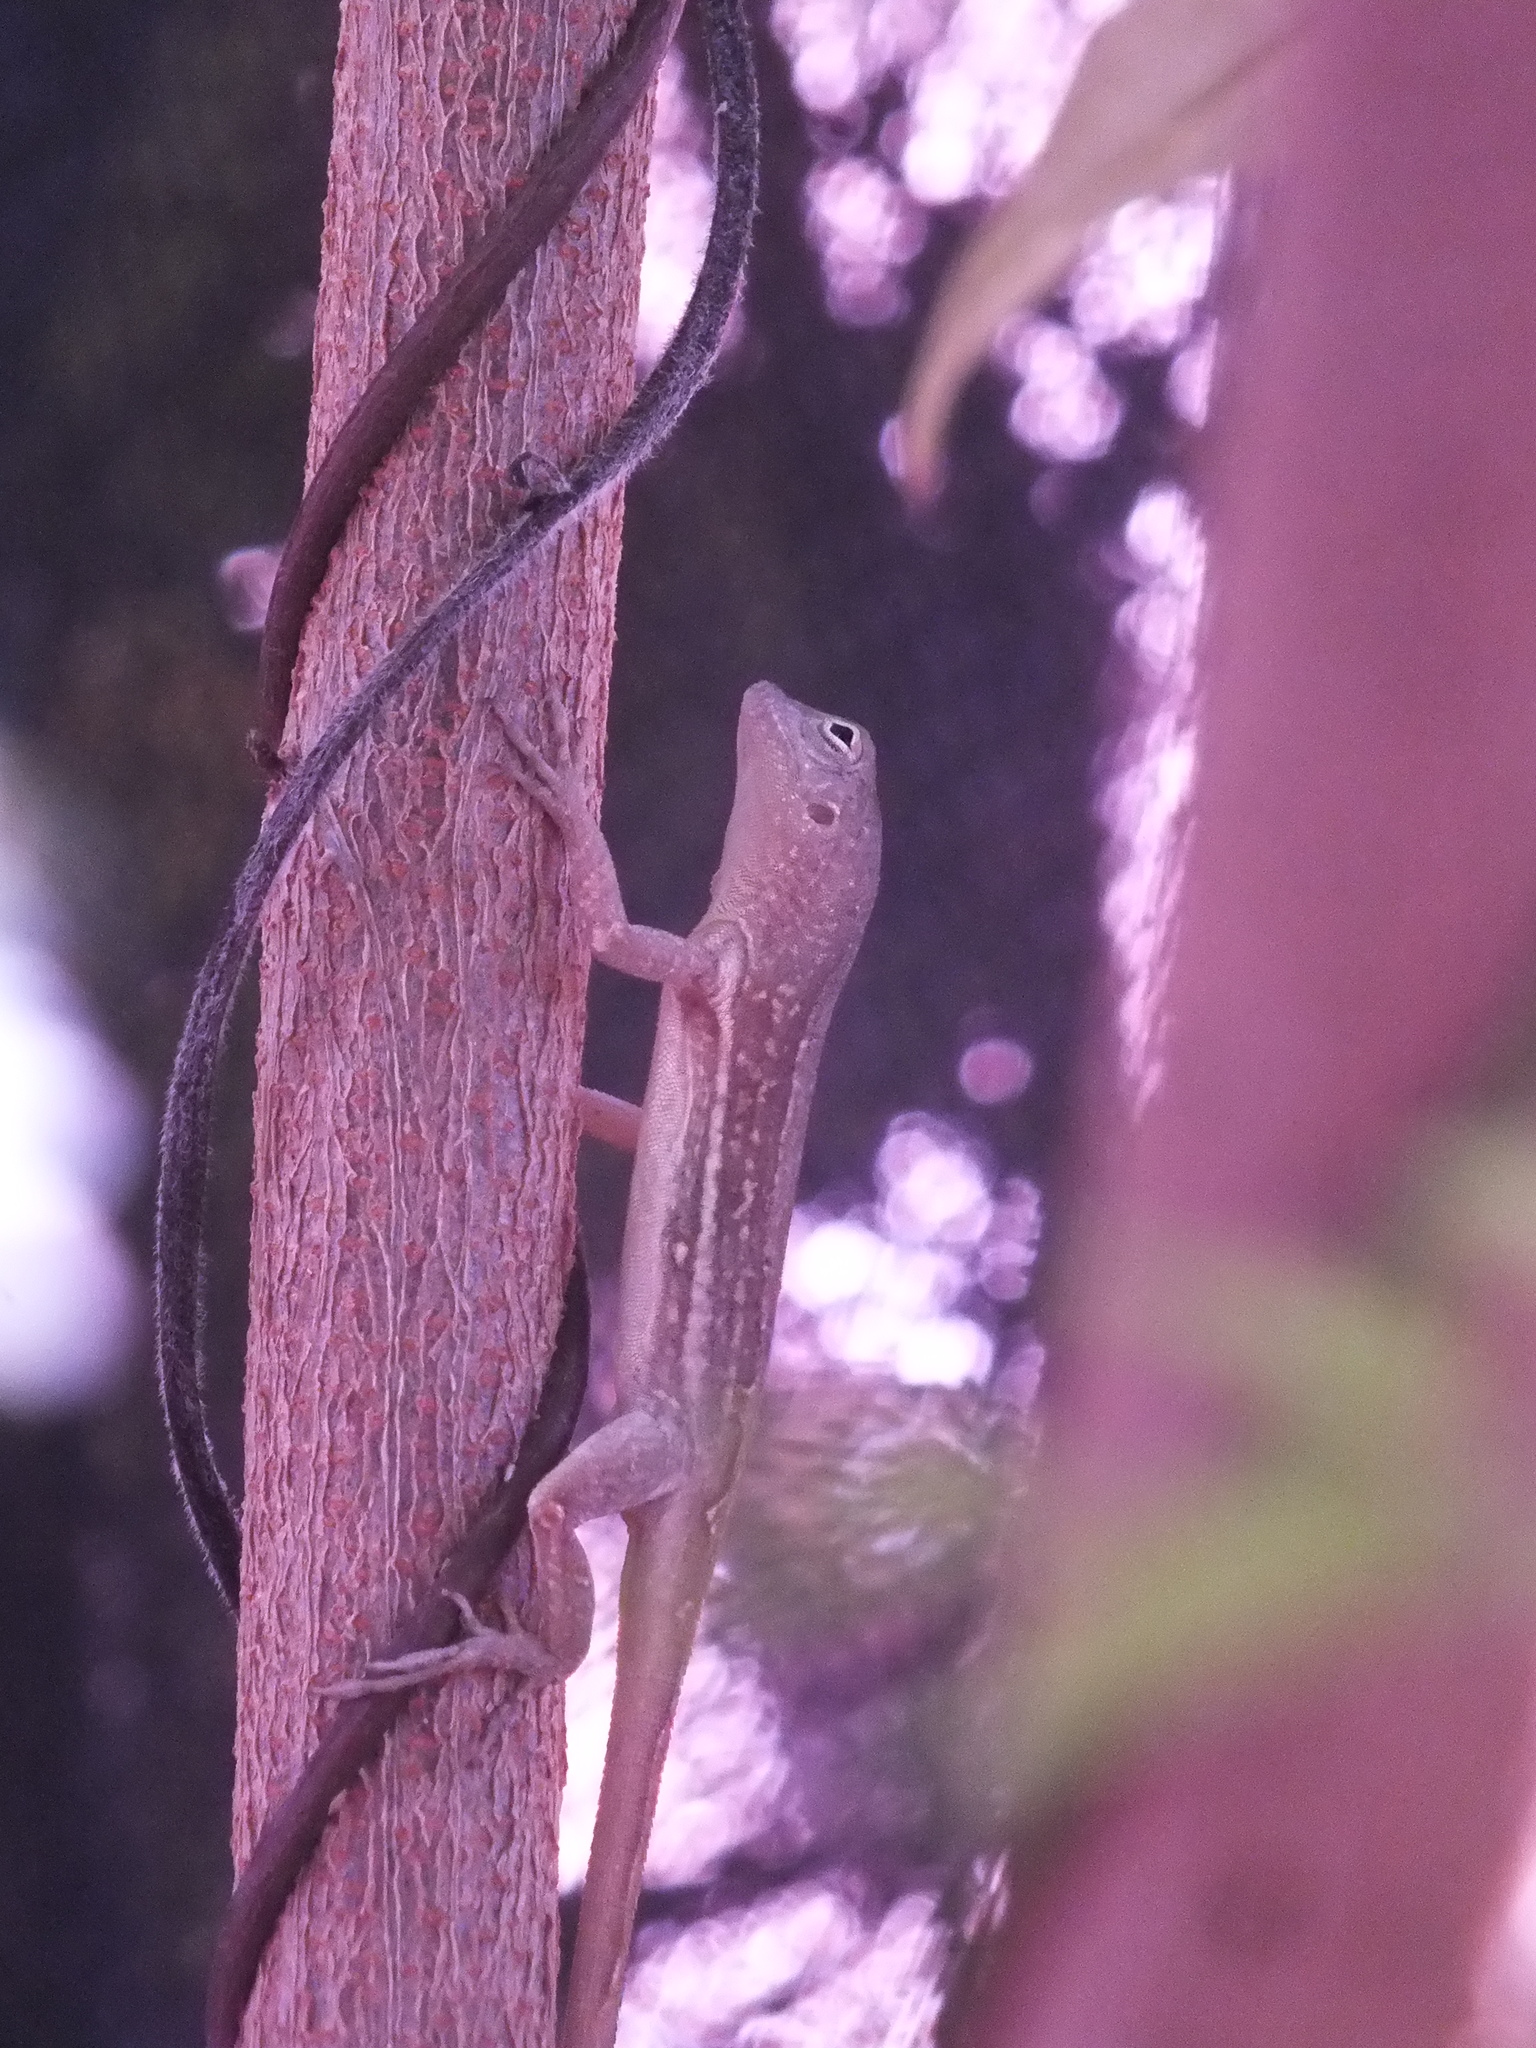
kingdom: Animalia
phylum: Chordata
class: Squamata
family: Dactyloidae
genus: Anolis
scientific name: Anolis lineatopus
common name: Stripefoot anole
